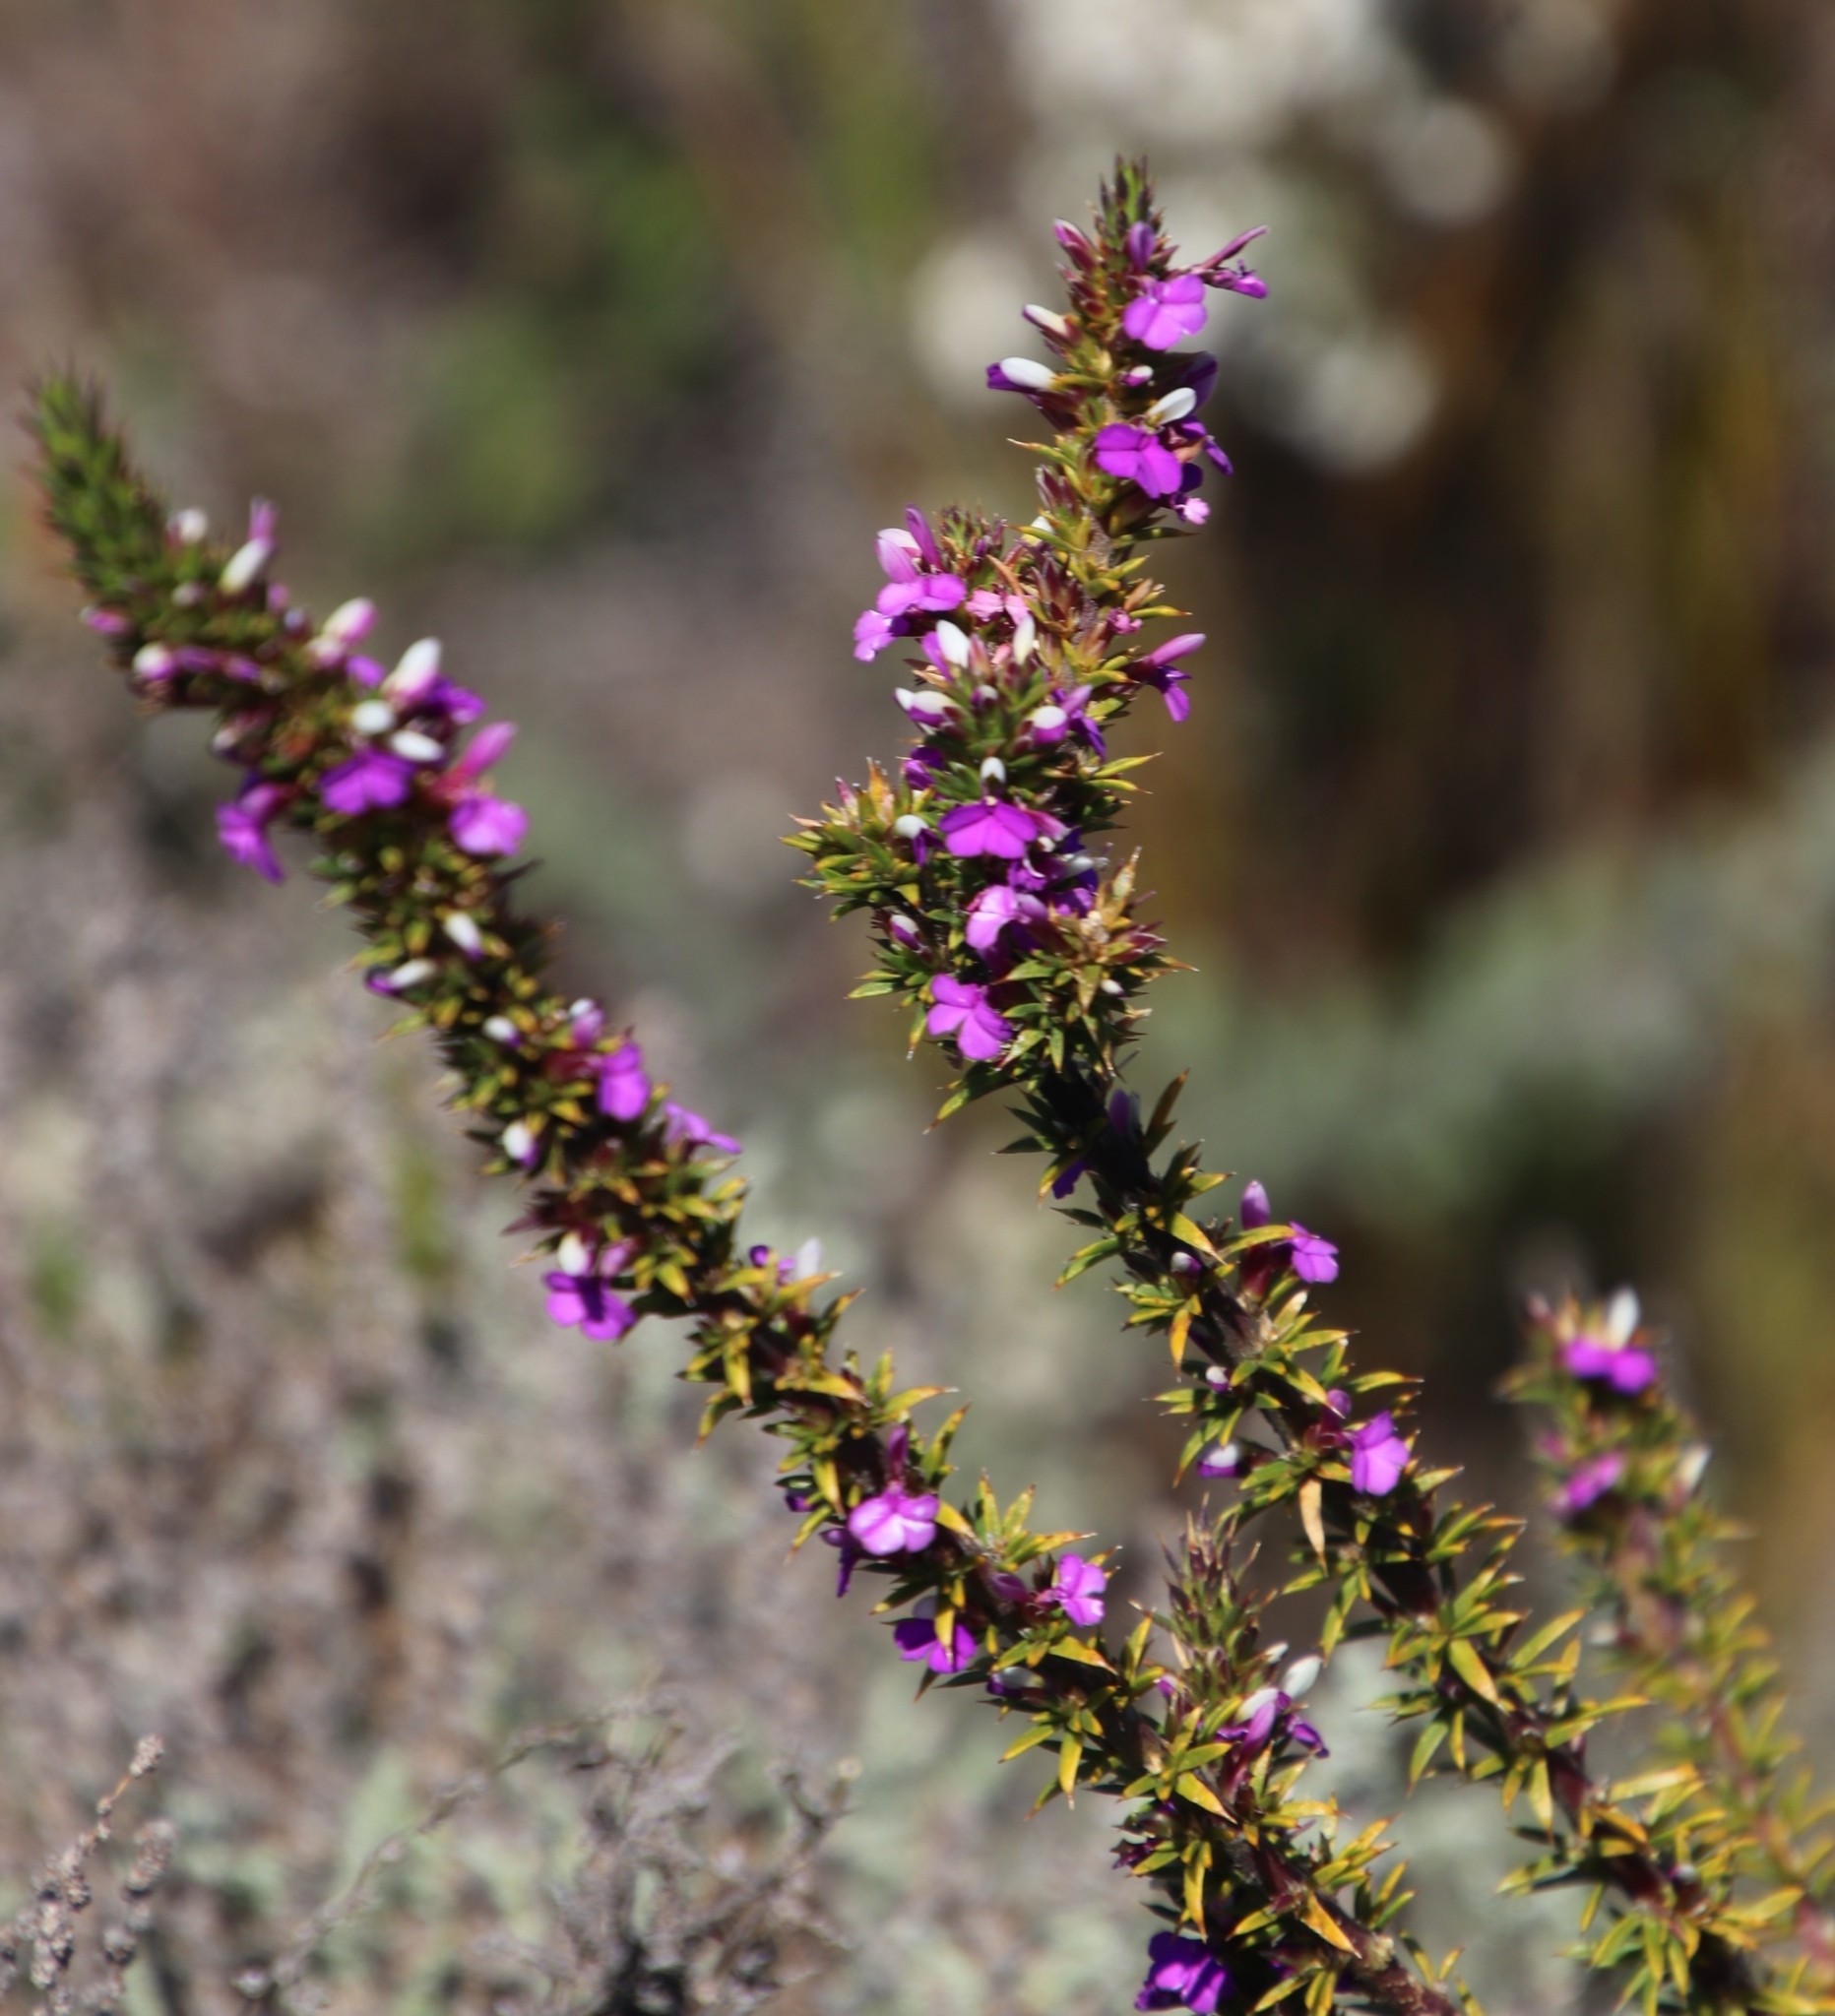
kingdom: Plantae
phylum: Tracheophyta
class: Magnoliopsida
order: Fabales
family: Polygalaceae
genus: Muraltia
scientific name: Muraltia heisteria
